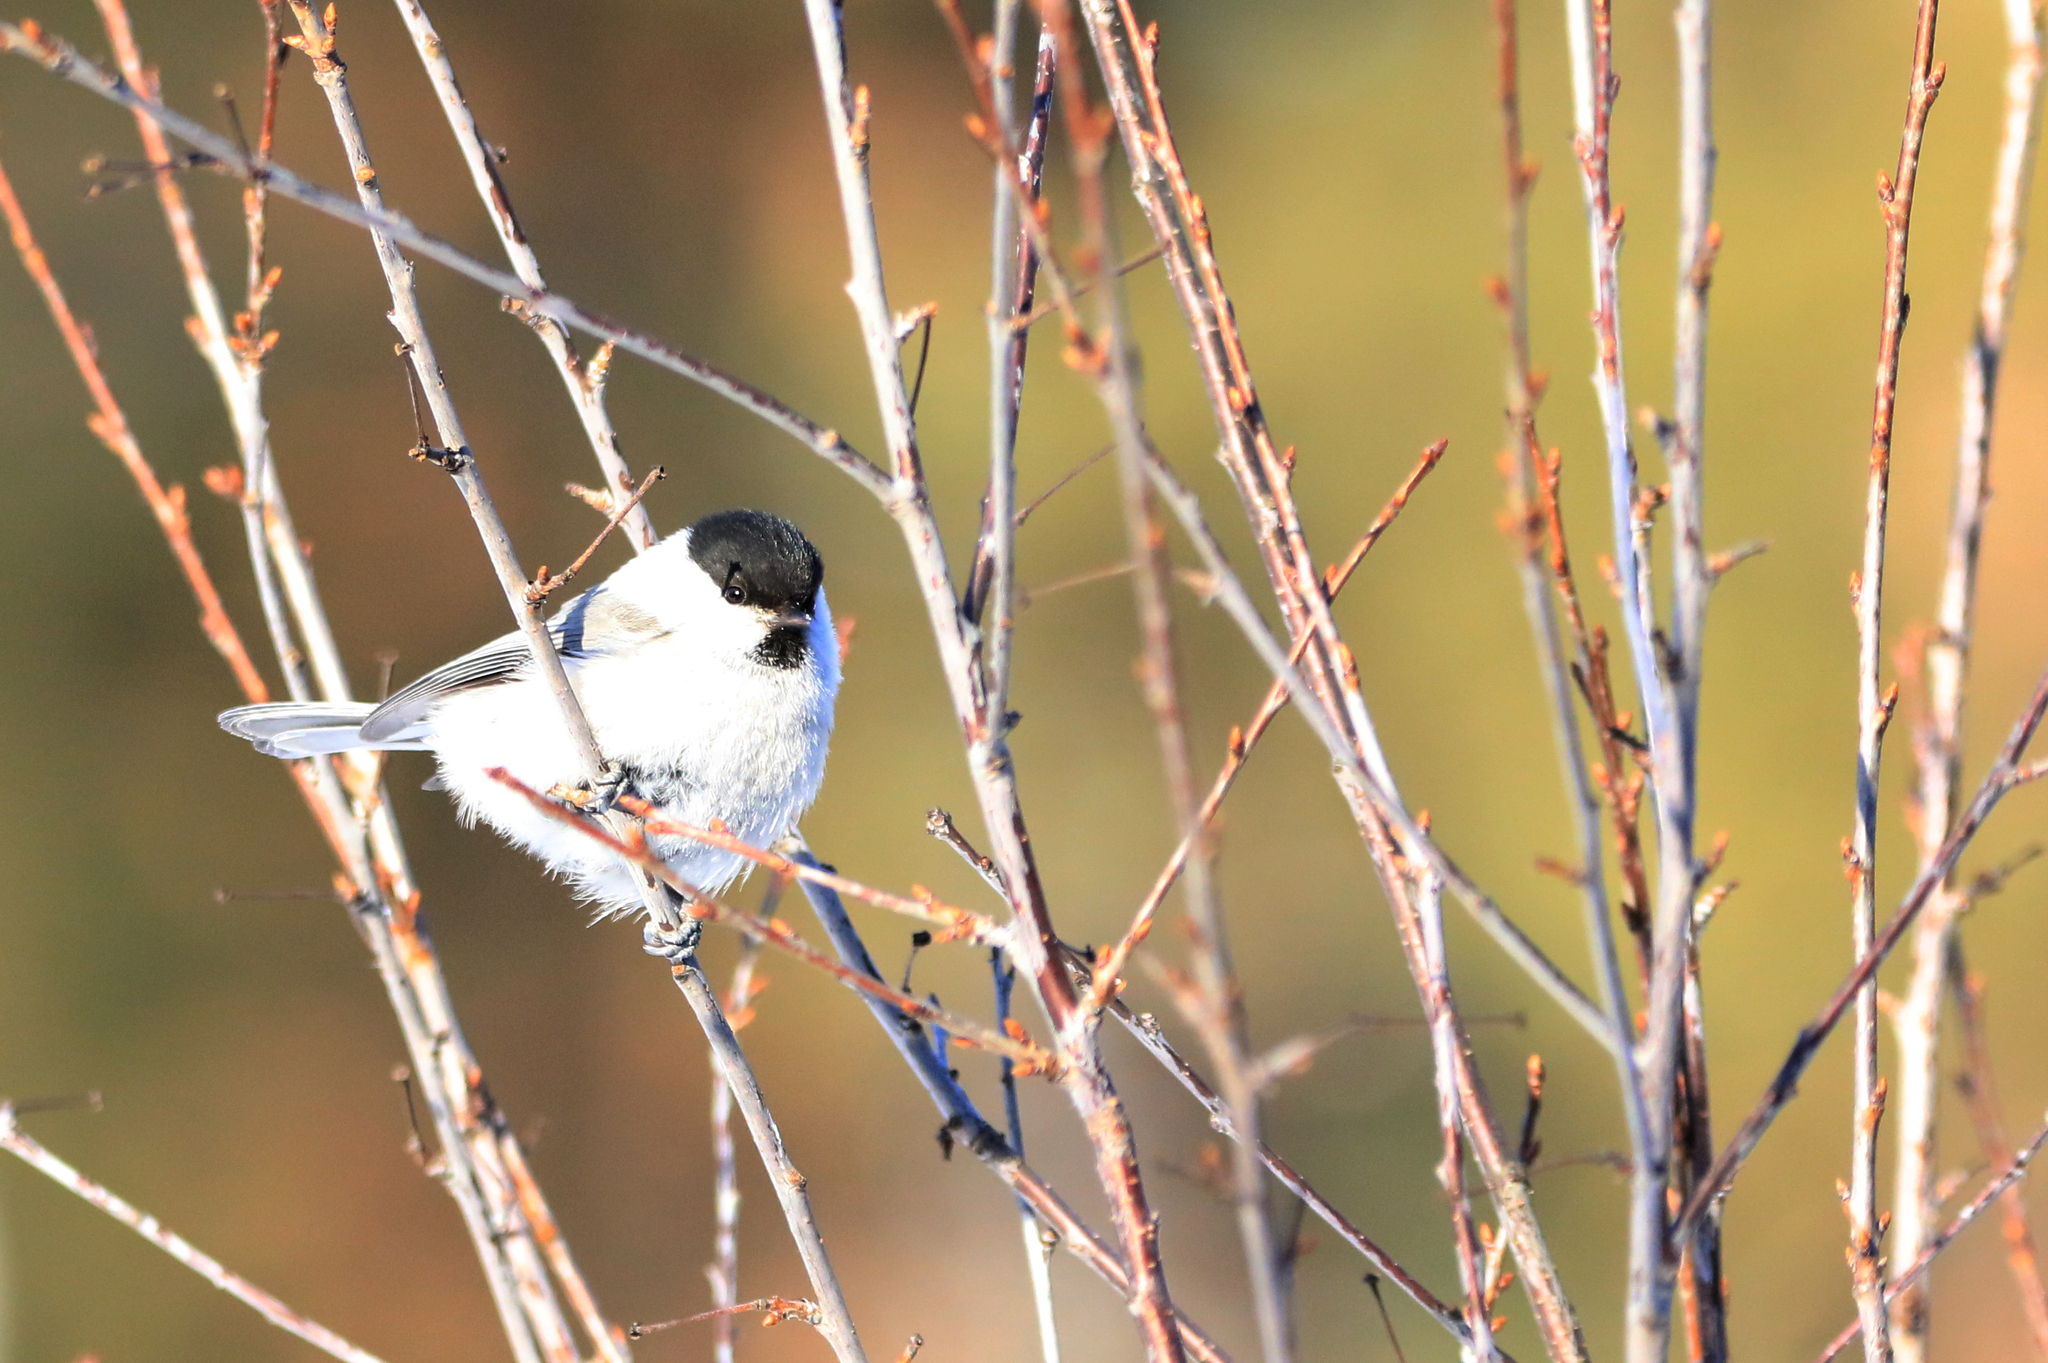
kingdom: Animalia
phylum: Chordata
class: Aves
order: Passeriformes
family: Paridae
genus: Poecile
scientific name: Poecile montanus
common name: Willow tit
